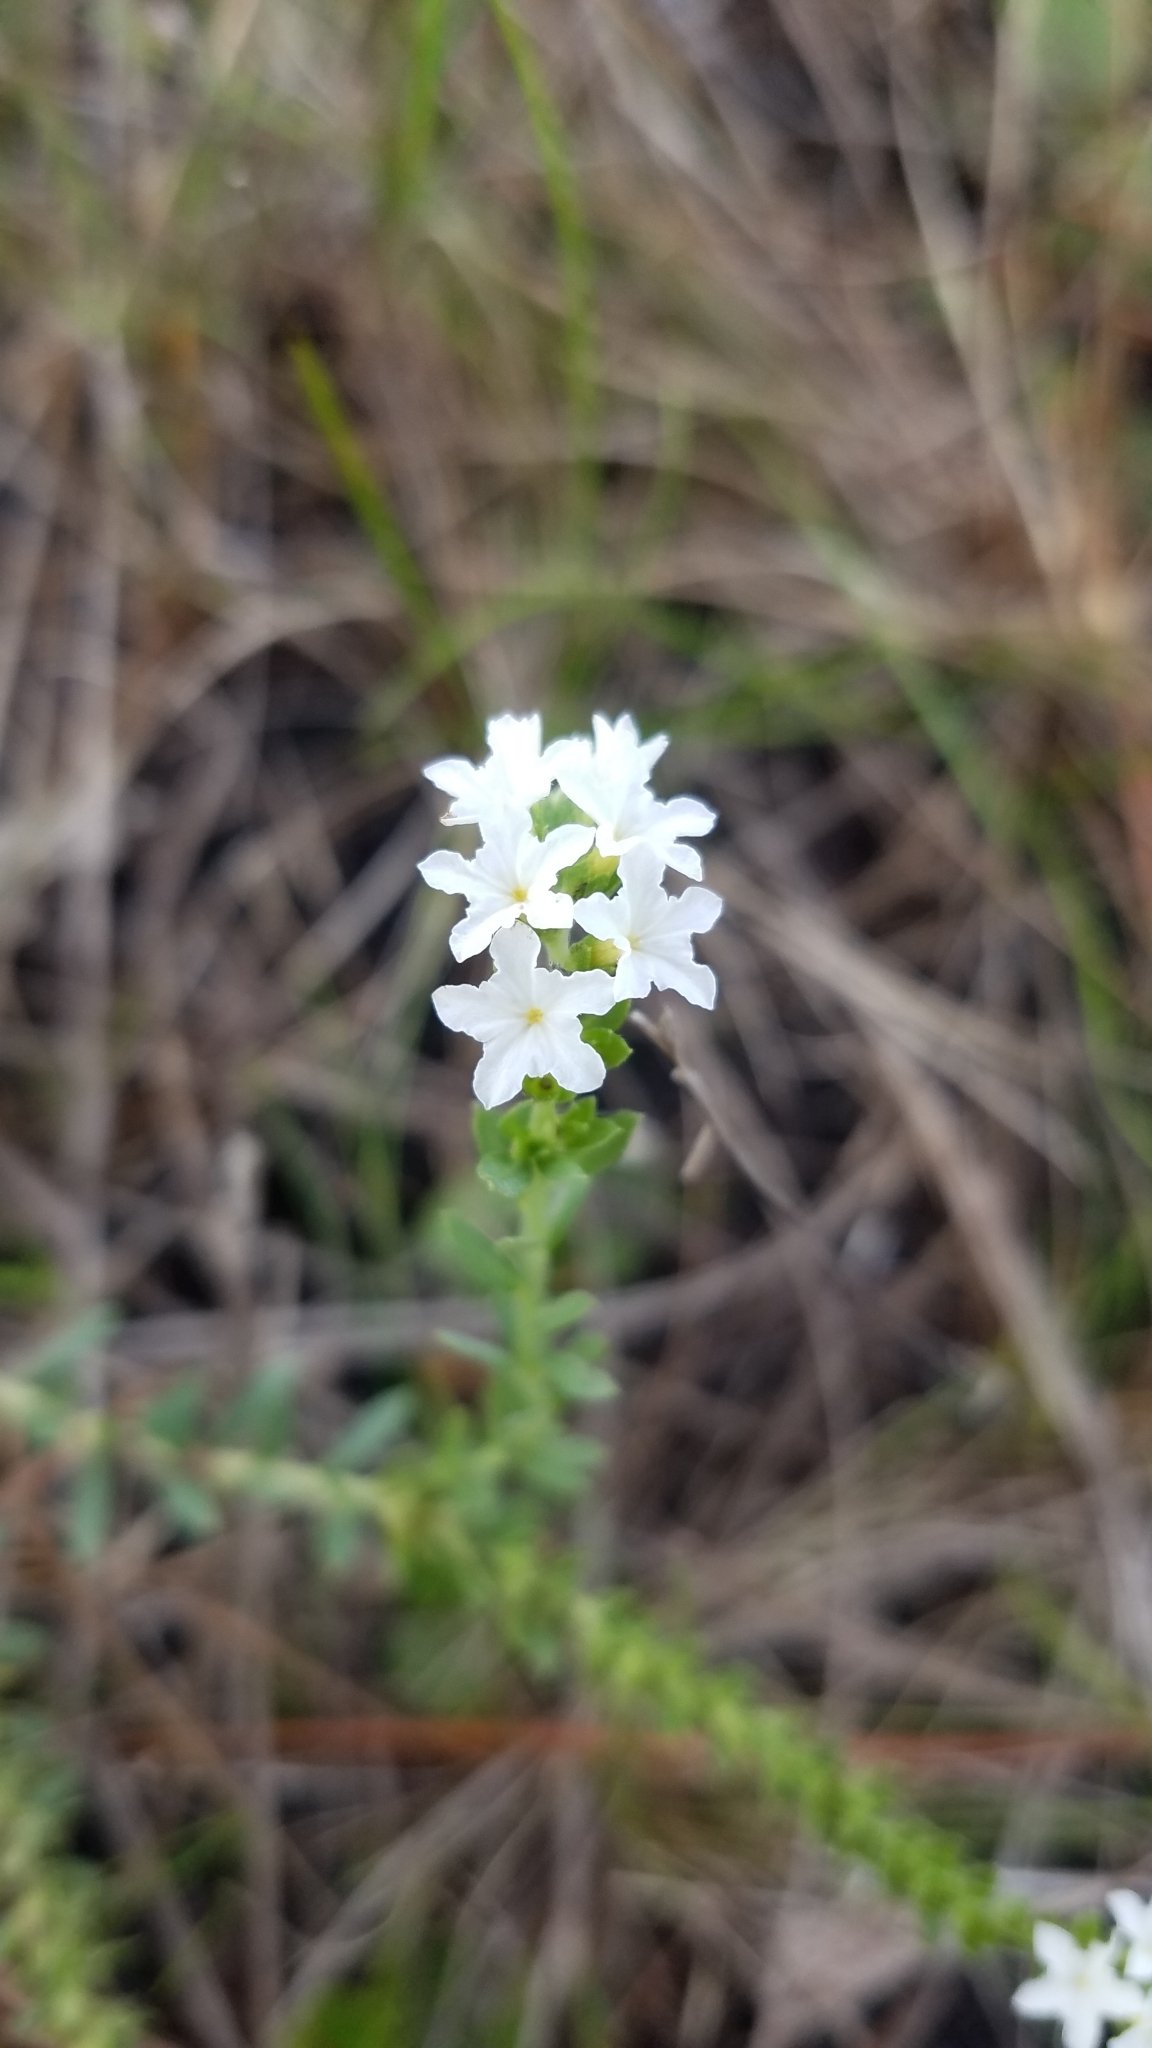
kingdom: Plantae
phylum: Tracheophyta
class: Magnoliopsida
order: Boraginales
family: Heliotropiaceae
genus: Euploca
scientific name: Euploca polyphylla
